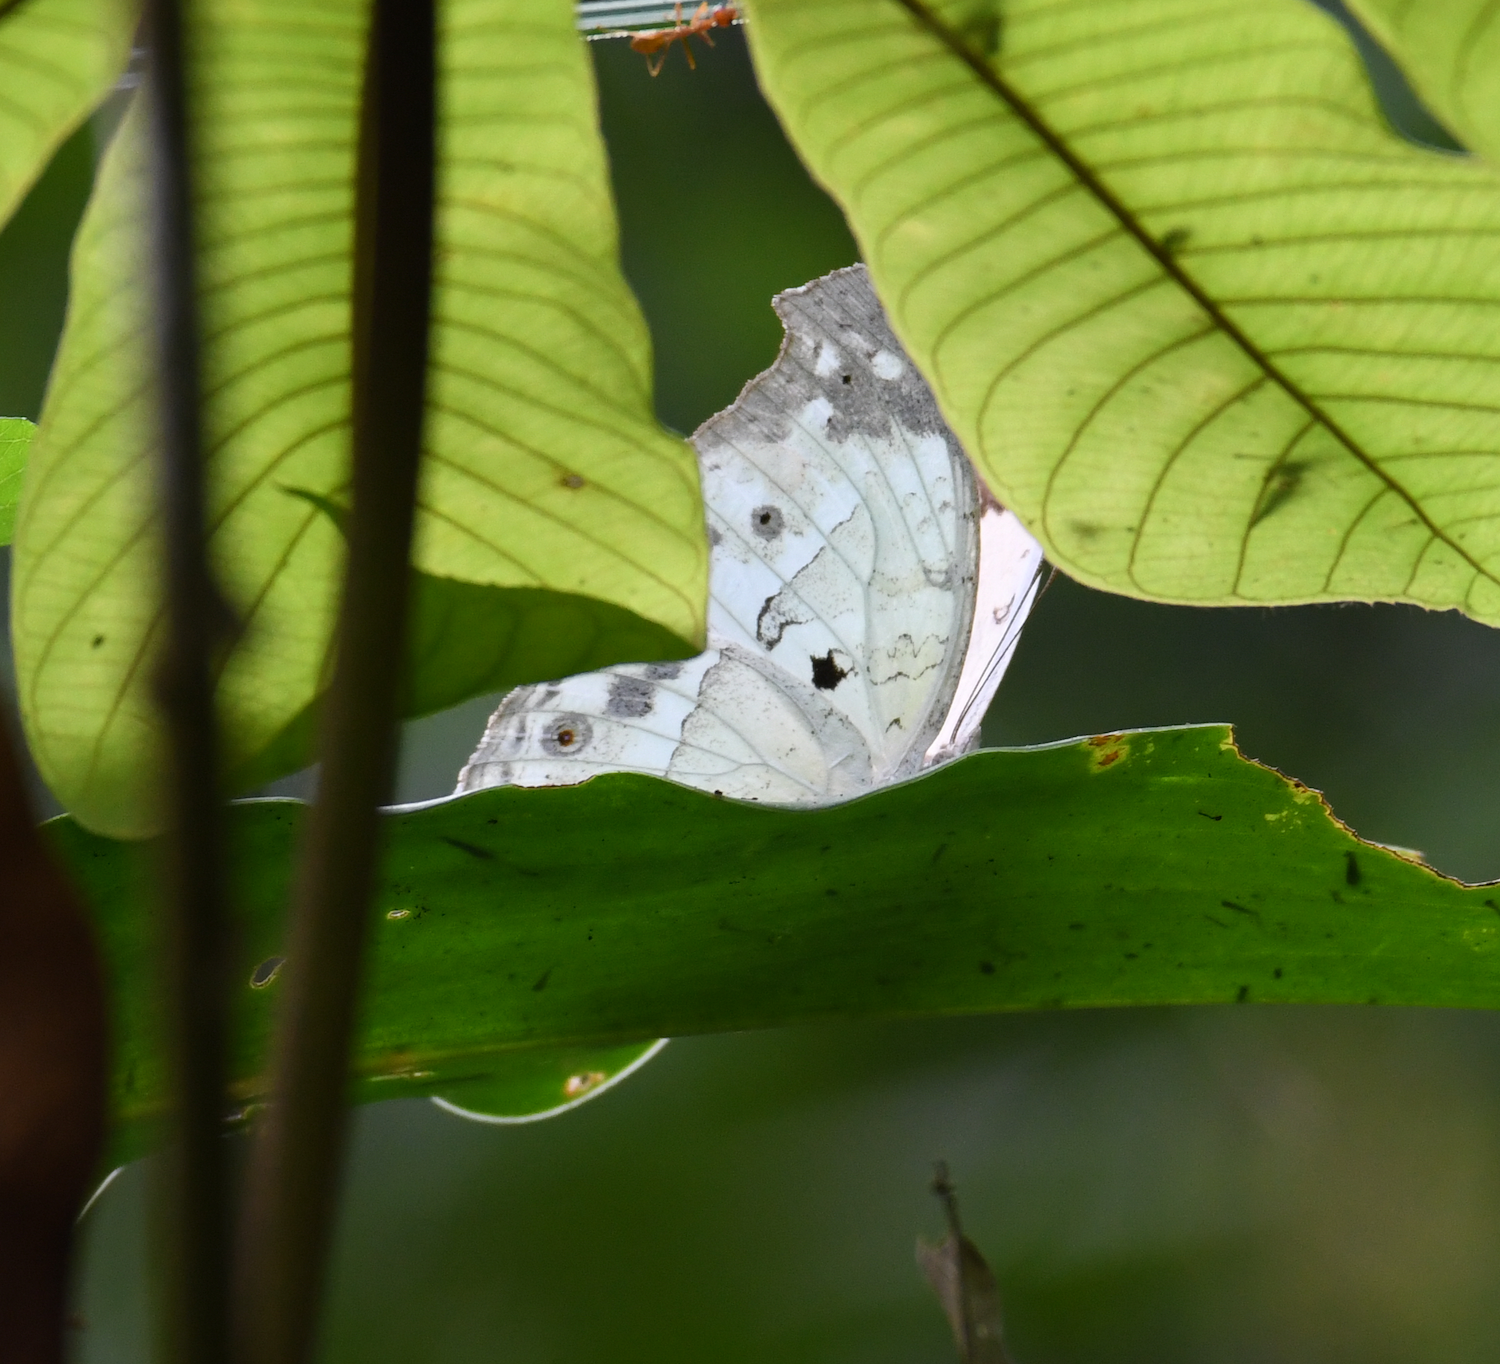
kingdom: Animalia
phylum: Arthropoda
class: Insecta
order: Lepidoptera
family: Nymphalidae
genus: Salamis
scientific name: Salamis Protogoniomorpha parhassus
